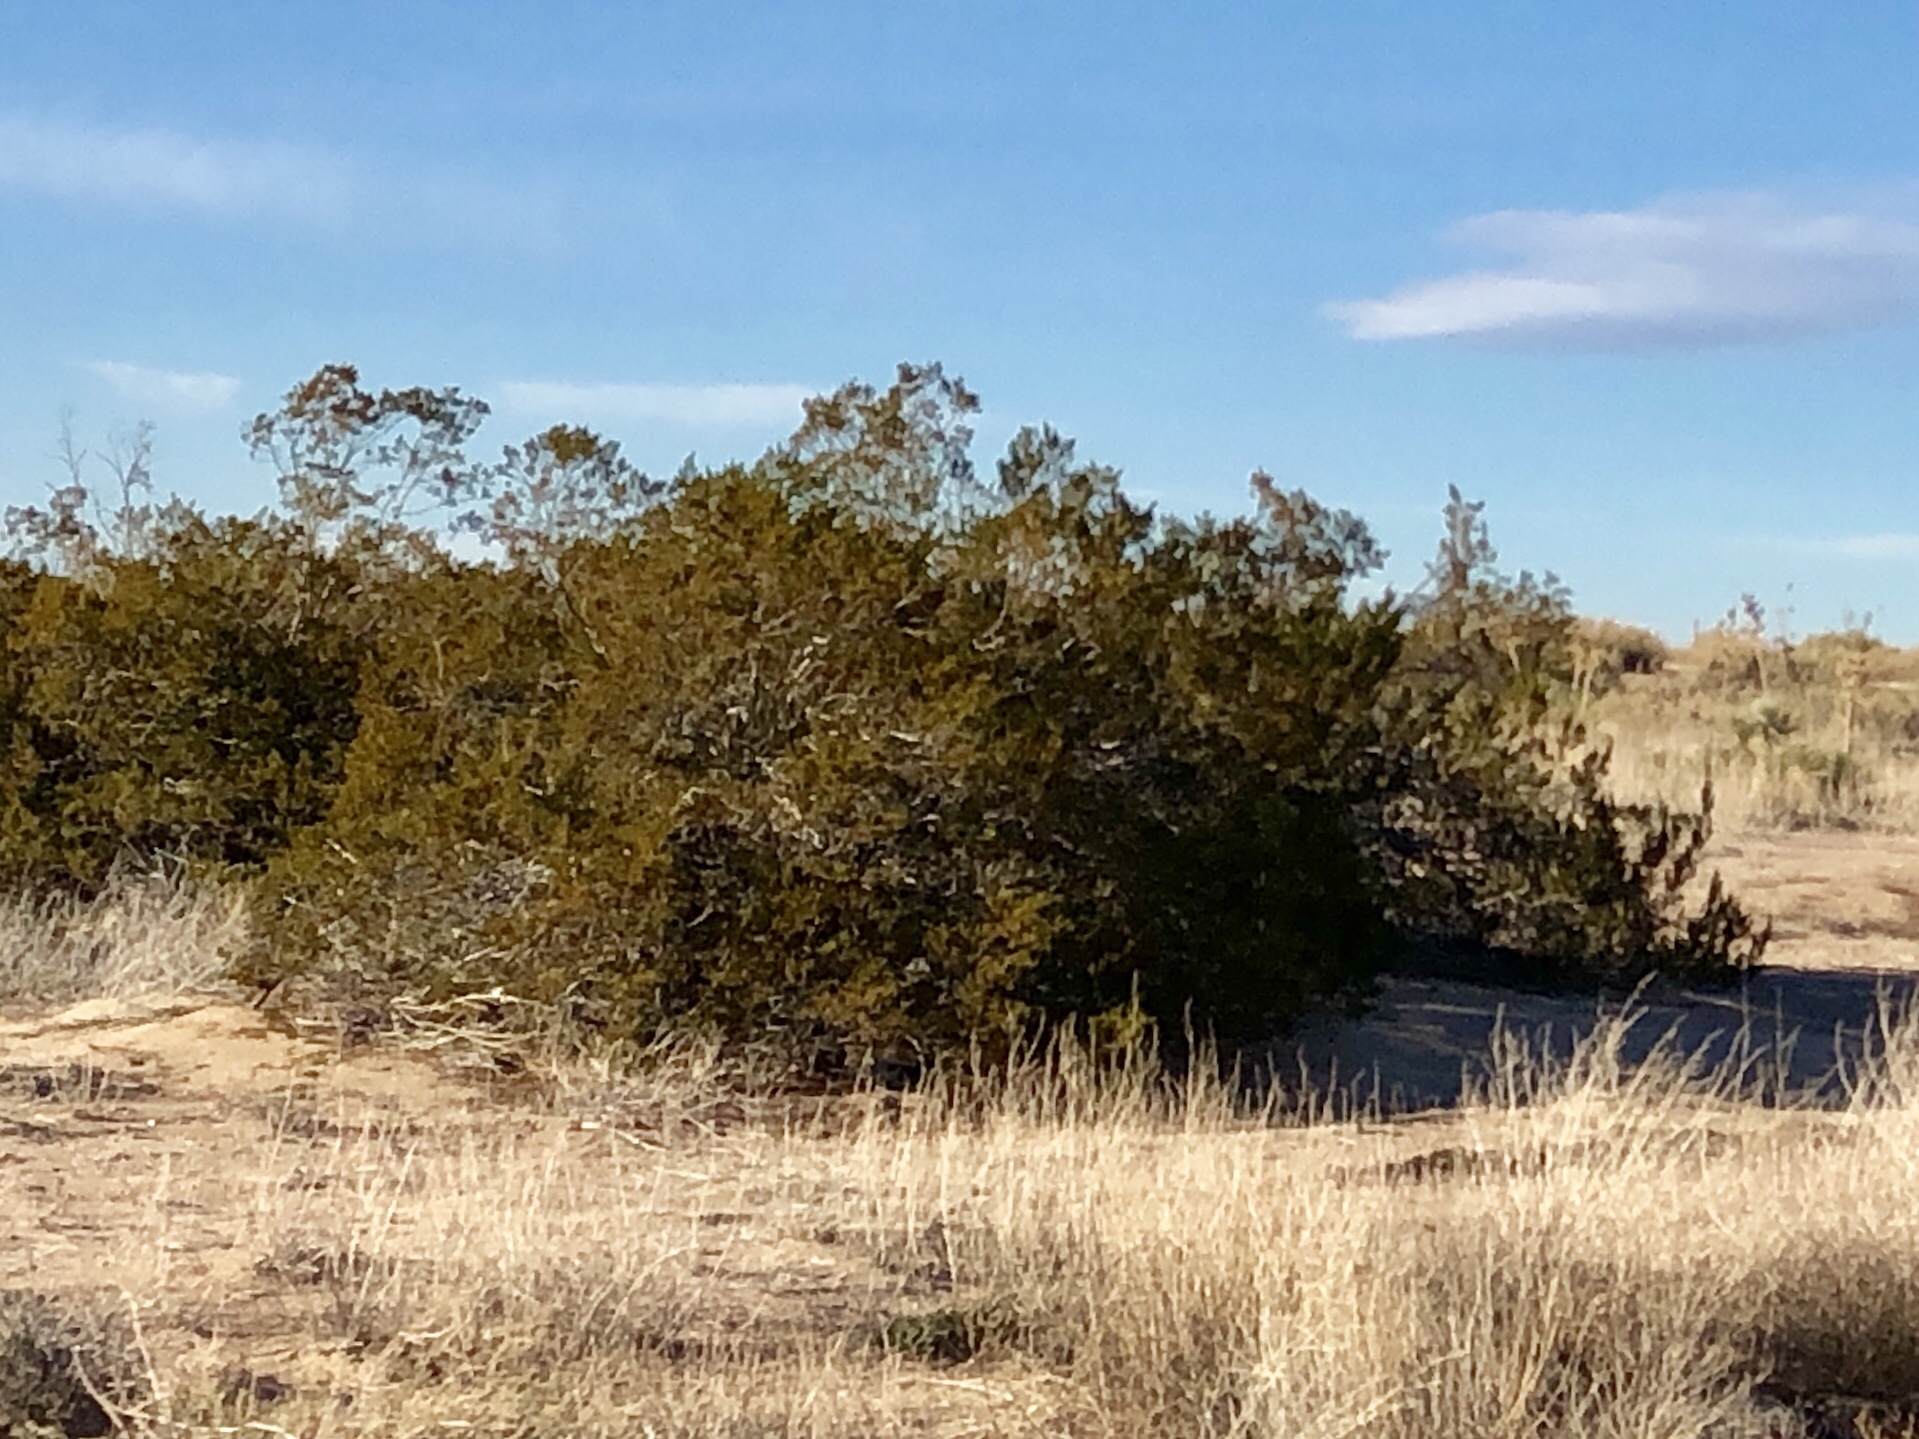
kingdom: Plantae
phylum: Tracheophyta
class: Magnoliopsida
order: Zygophyllales
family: Zygophyllaceae
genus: Larrea
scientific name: Larrea tridentata
